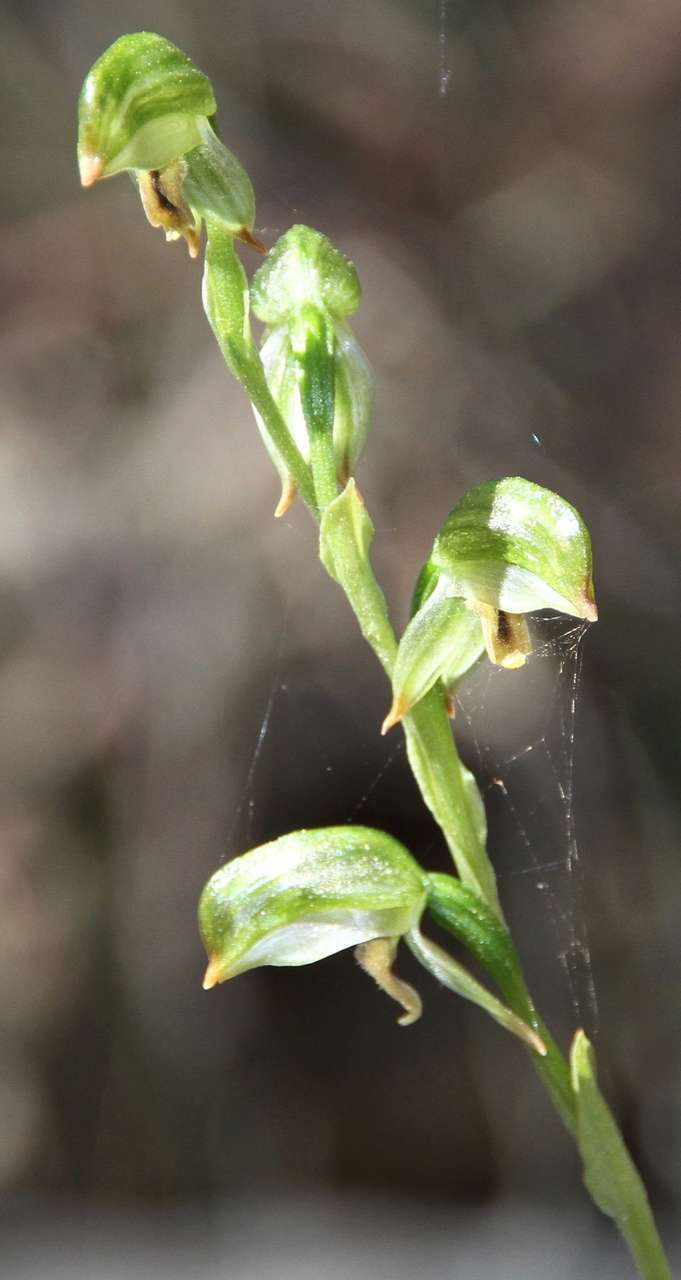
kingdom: Plantae
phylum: Tracheophyta
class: Liliopsida
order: Asparagales
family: Orchidaceae
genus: Pterostylis
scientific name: Pterostylis melagramma
